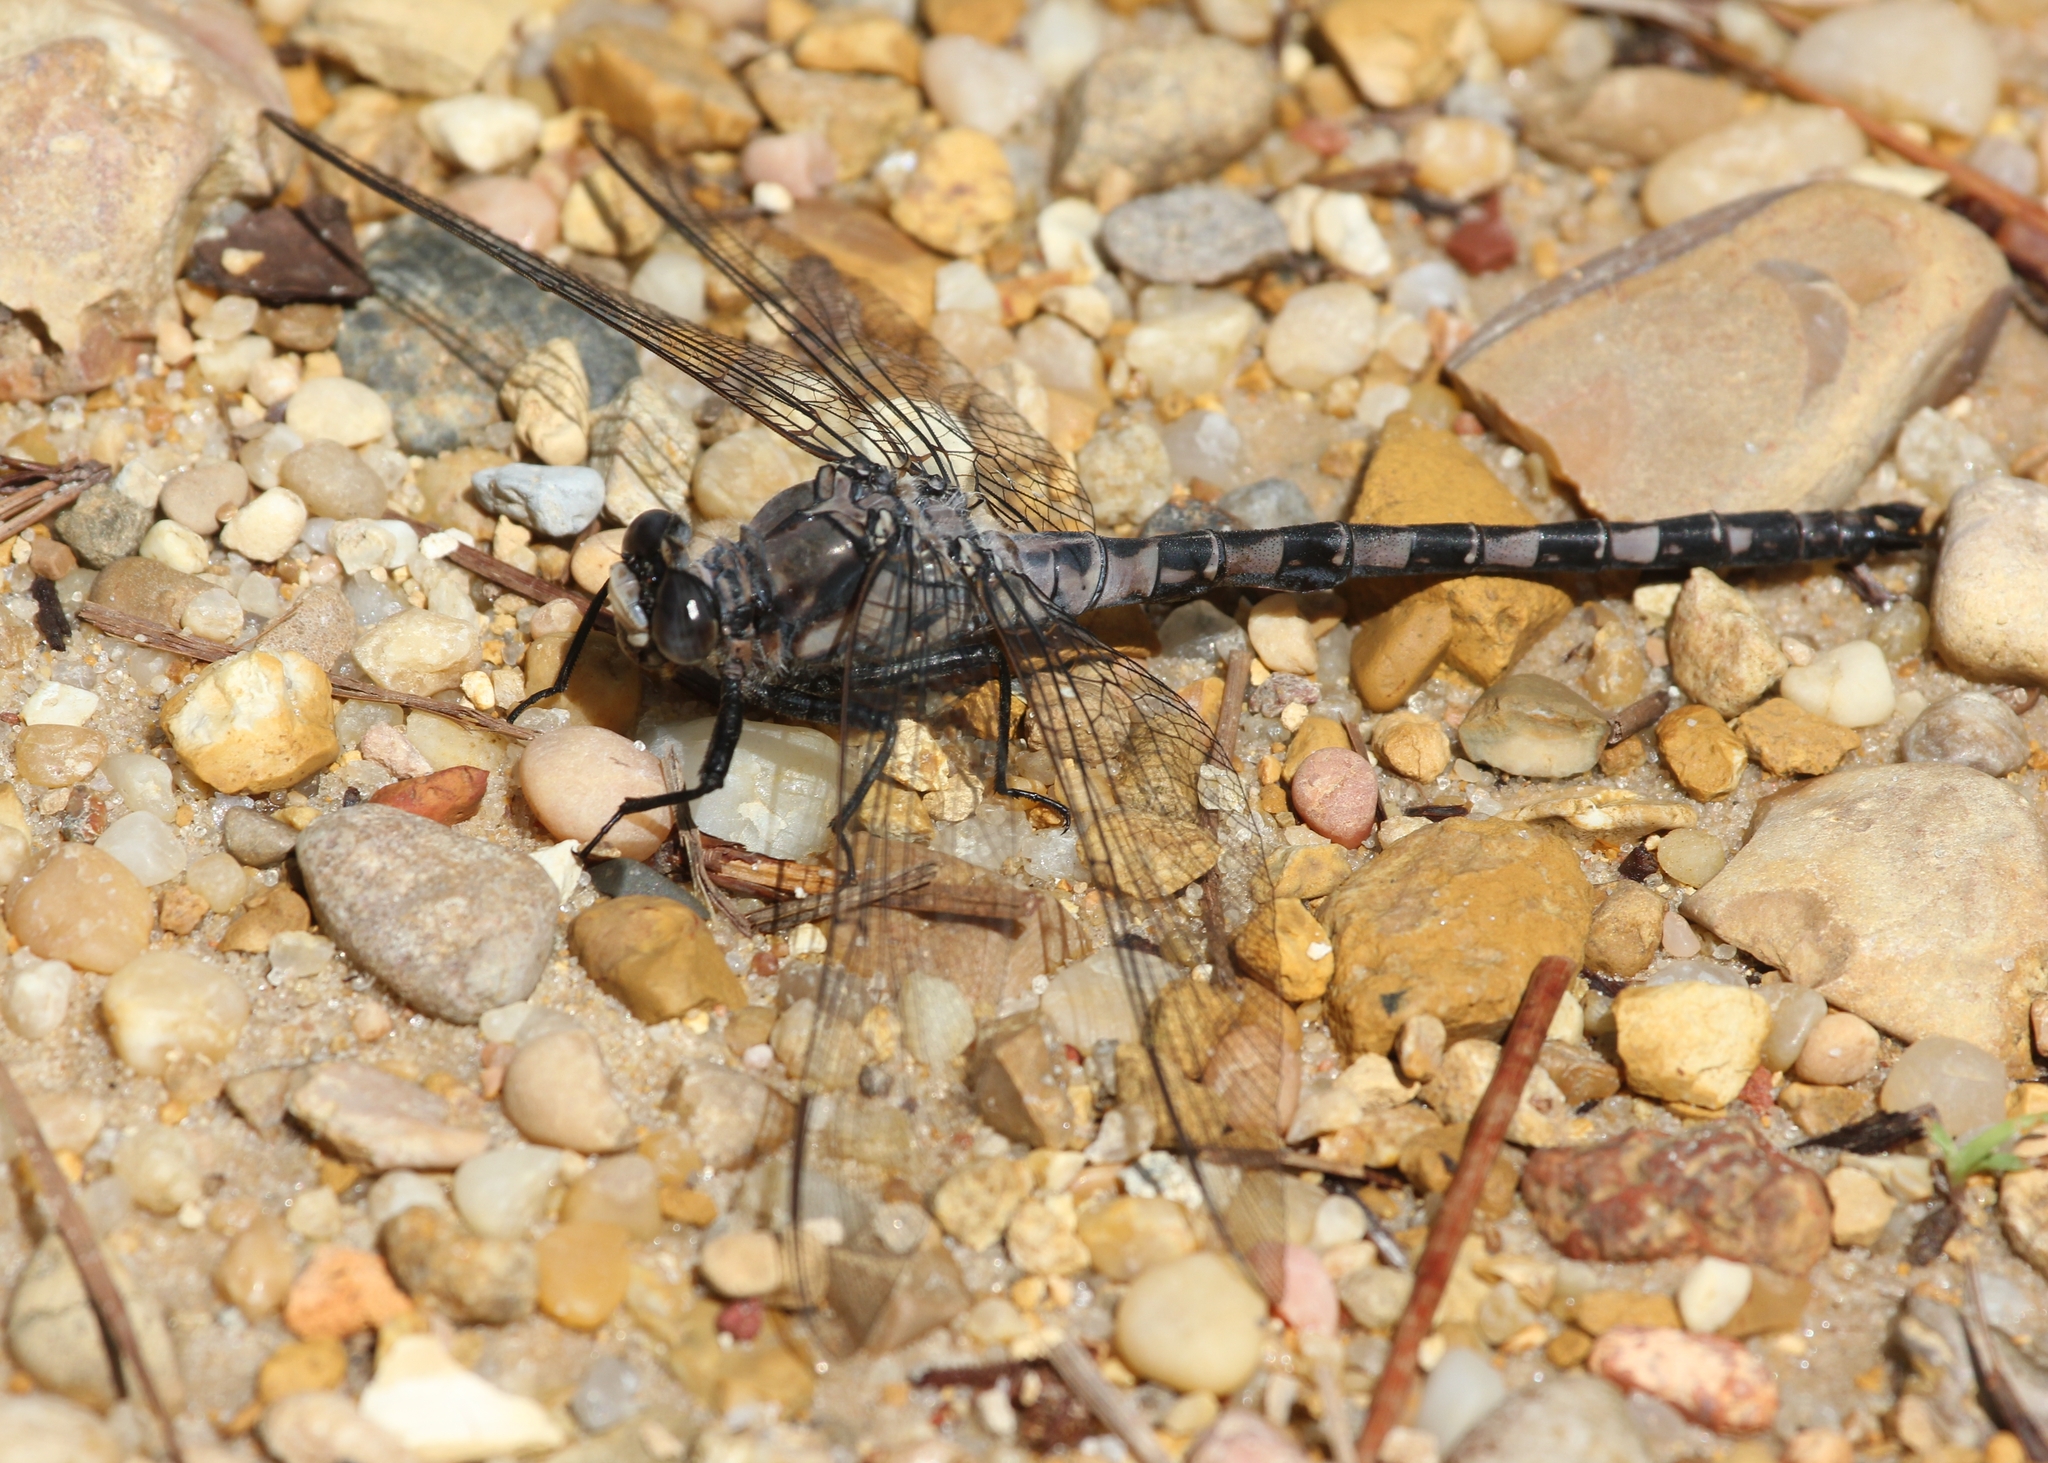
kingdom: Animalia
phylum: Arthropoda
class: Insecta
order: Odonata
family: Petaluridae
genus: Tachopteryx
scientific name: Tachopteryx thoreyi
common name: Gray petaltail
